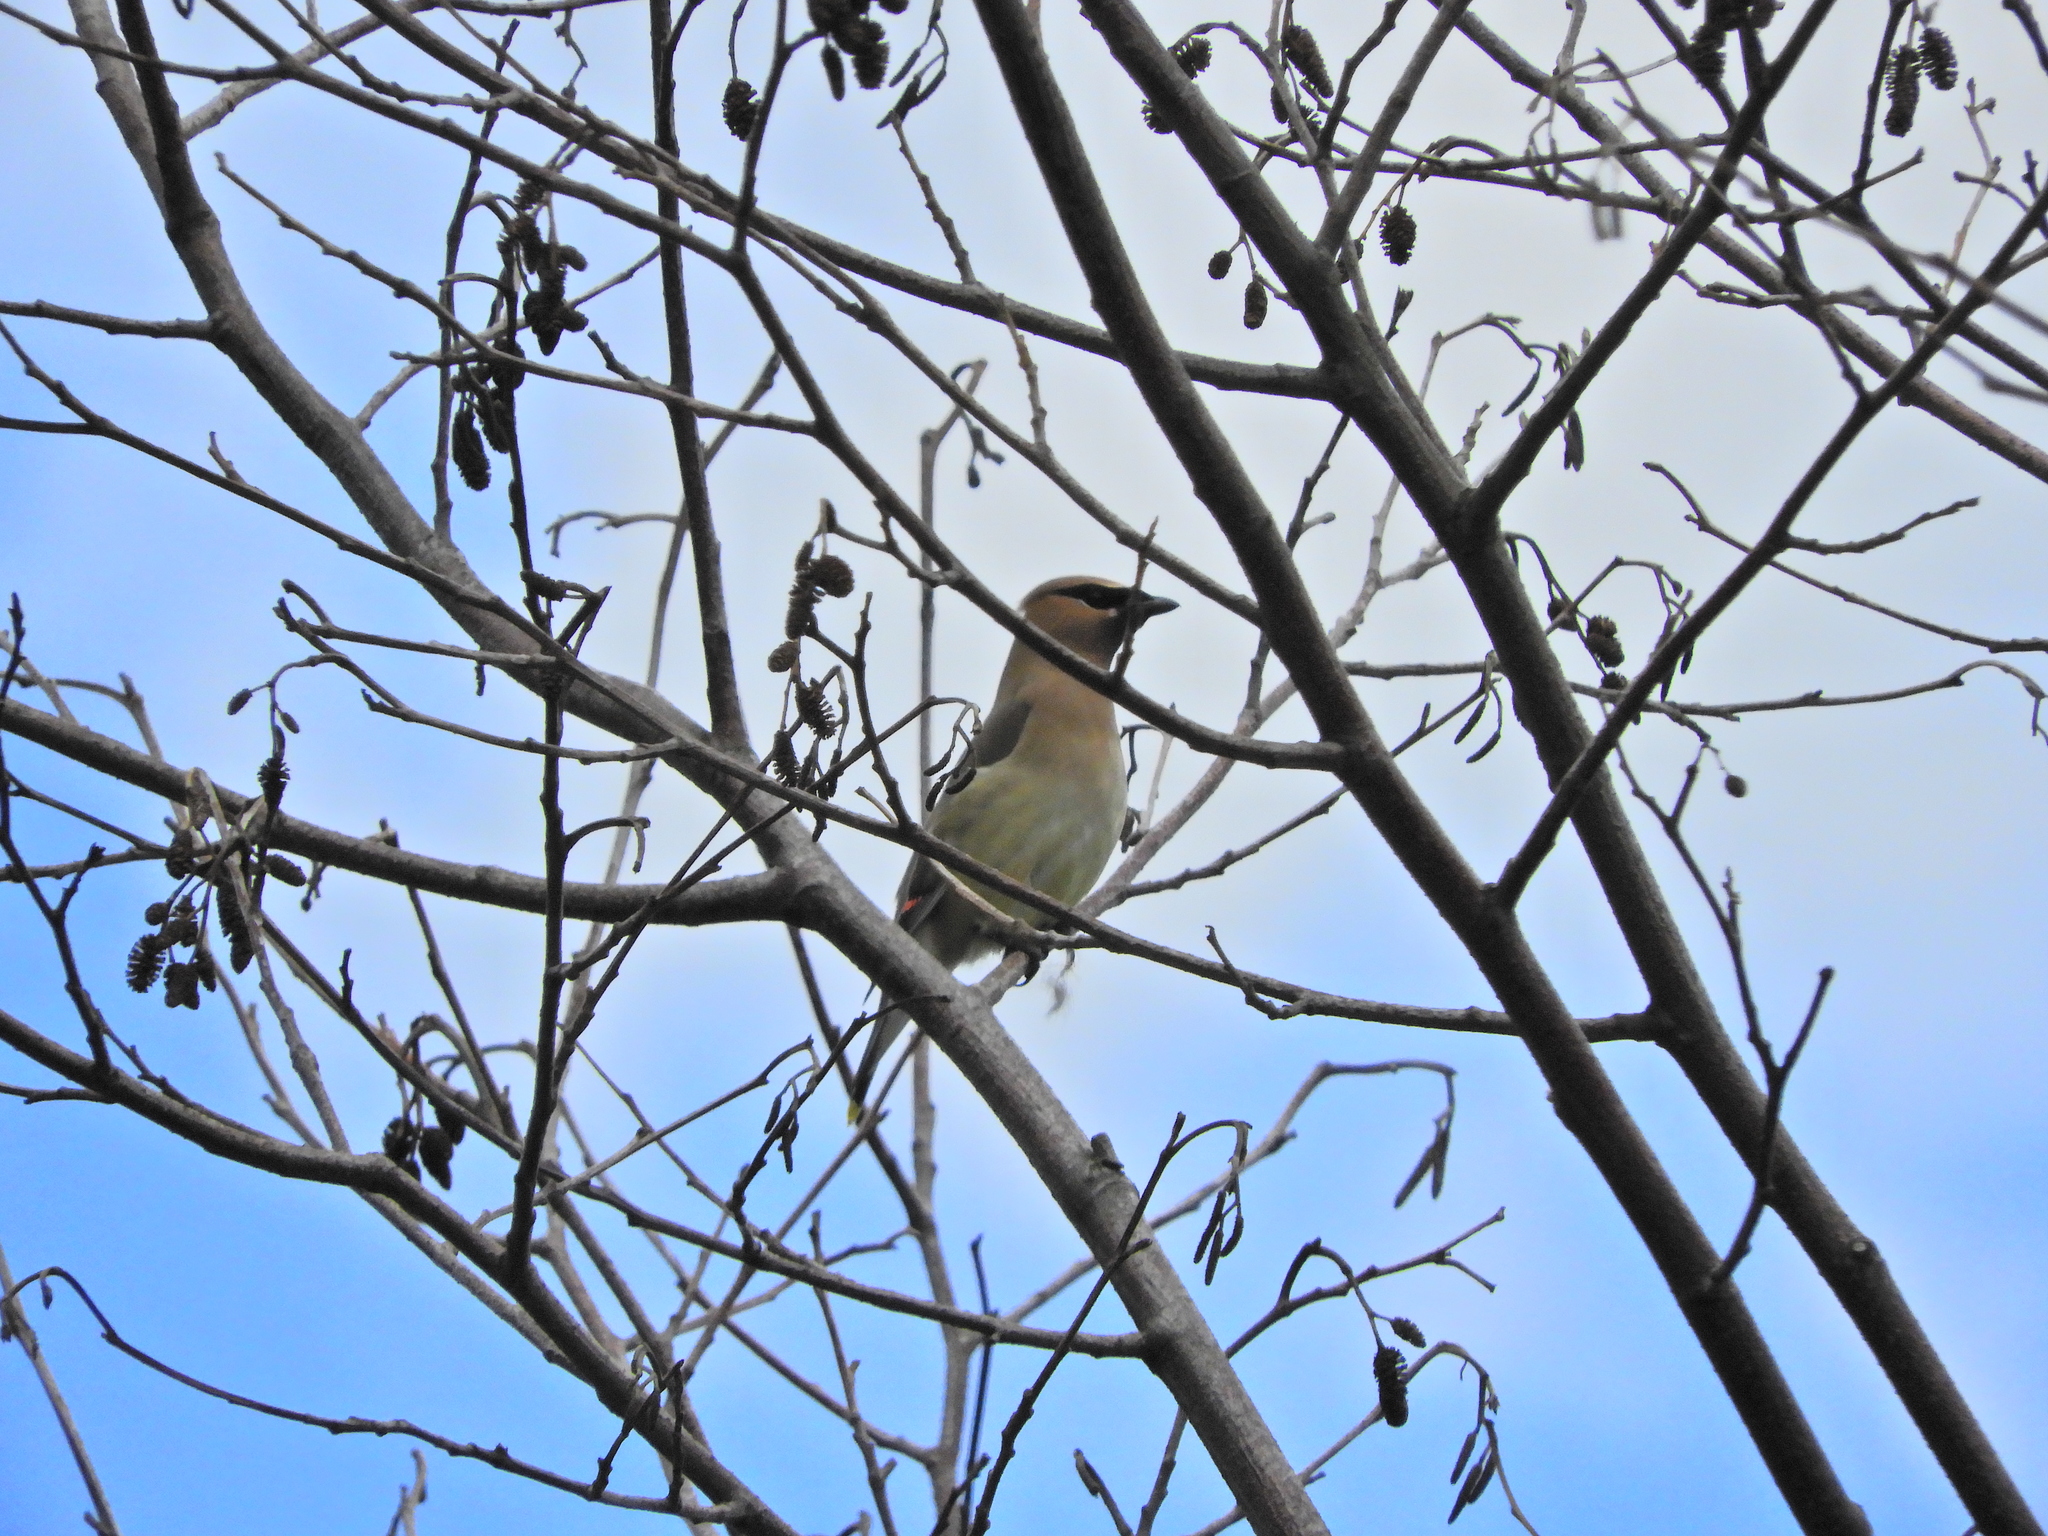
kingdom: Animalia
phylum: Chordata
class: Aves
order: Passeriformes
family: Bombycillidae
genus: Bombycilla
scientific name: Bombycilla cedrorum
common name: Cedar waxwing
